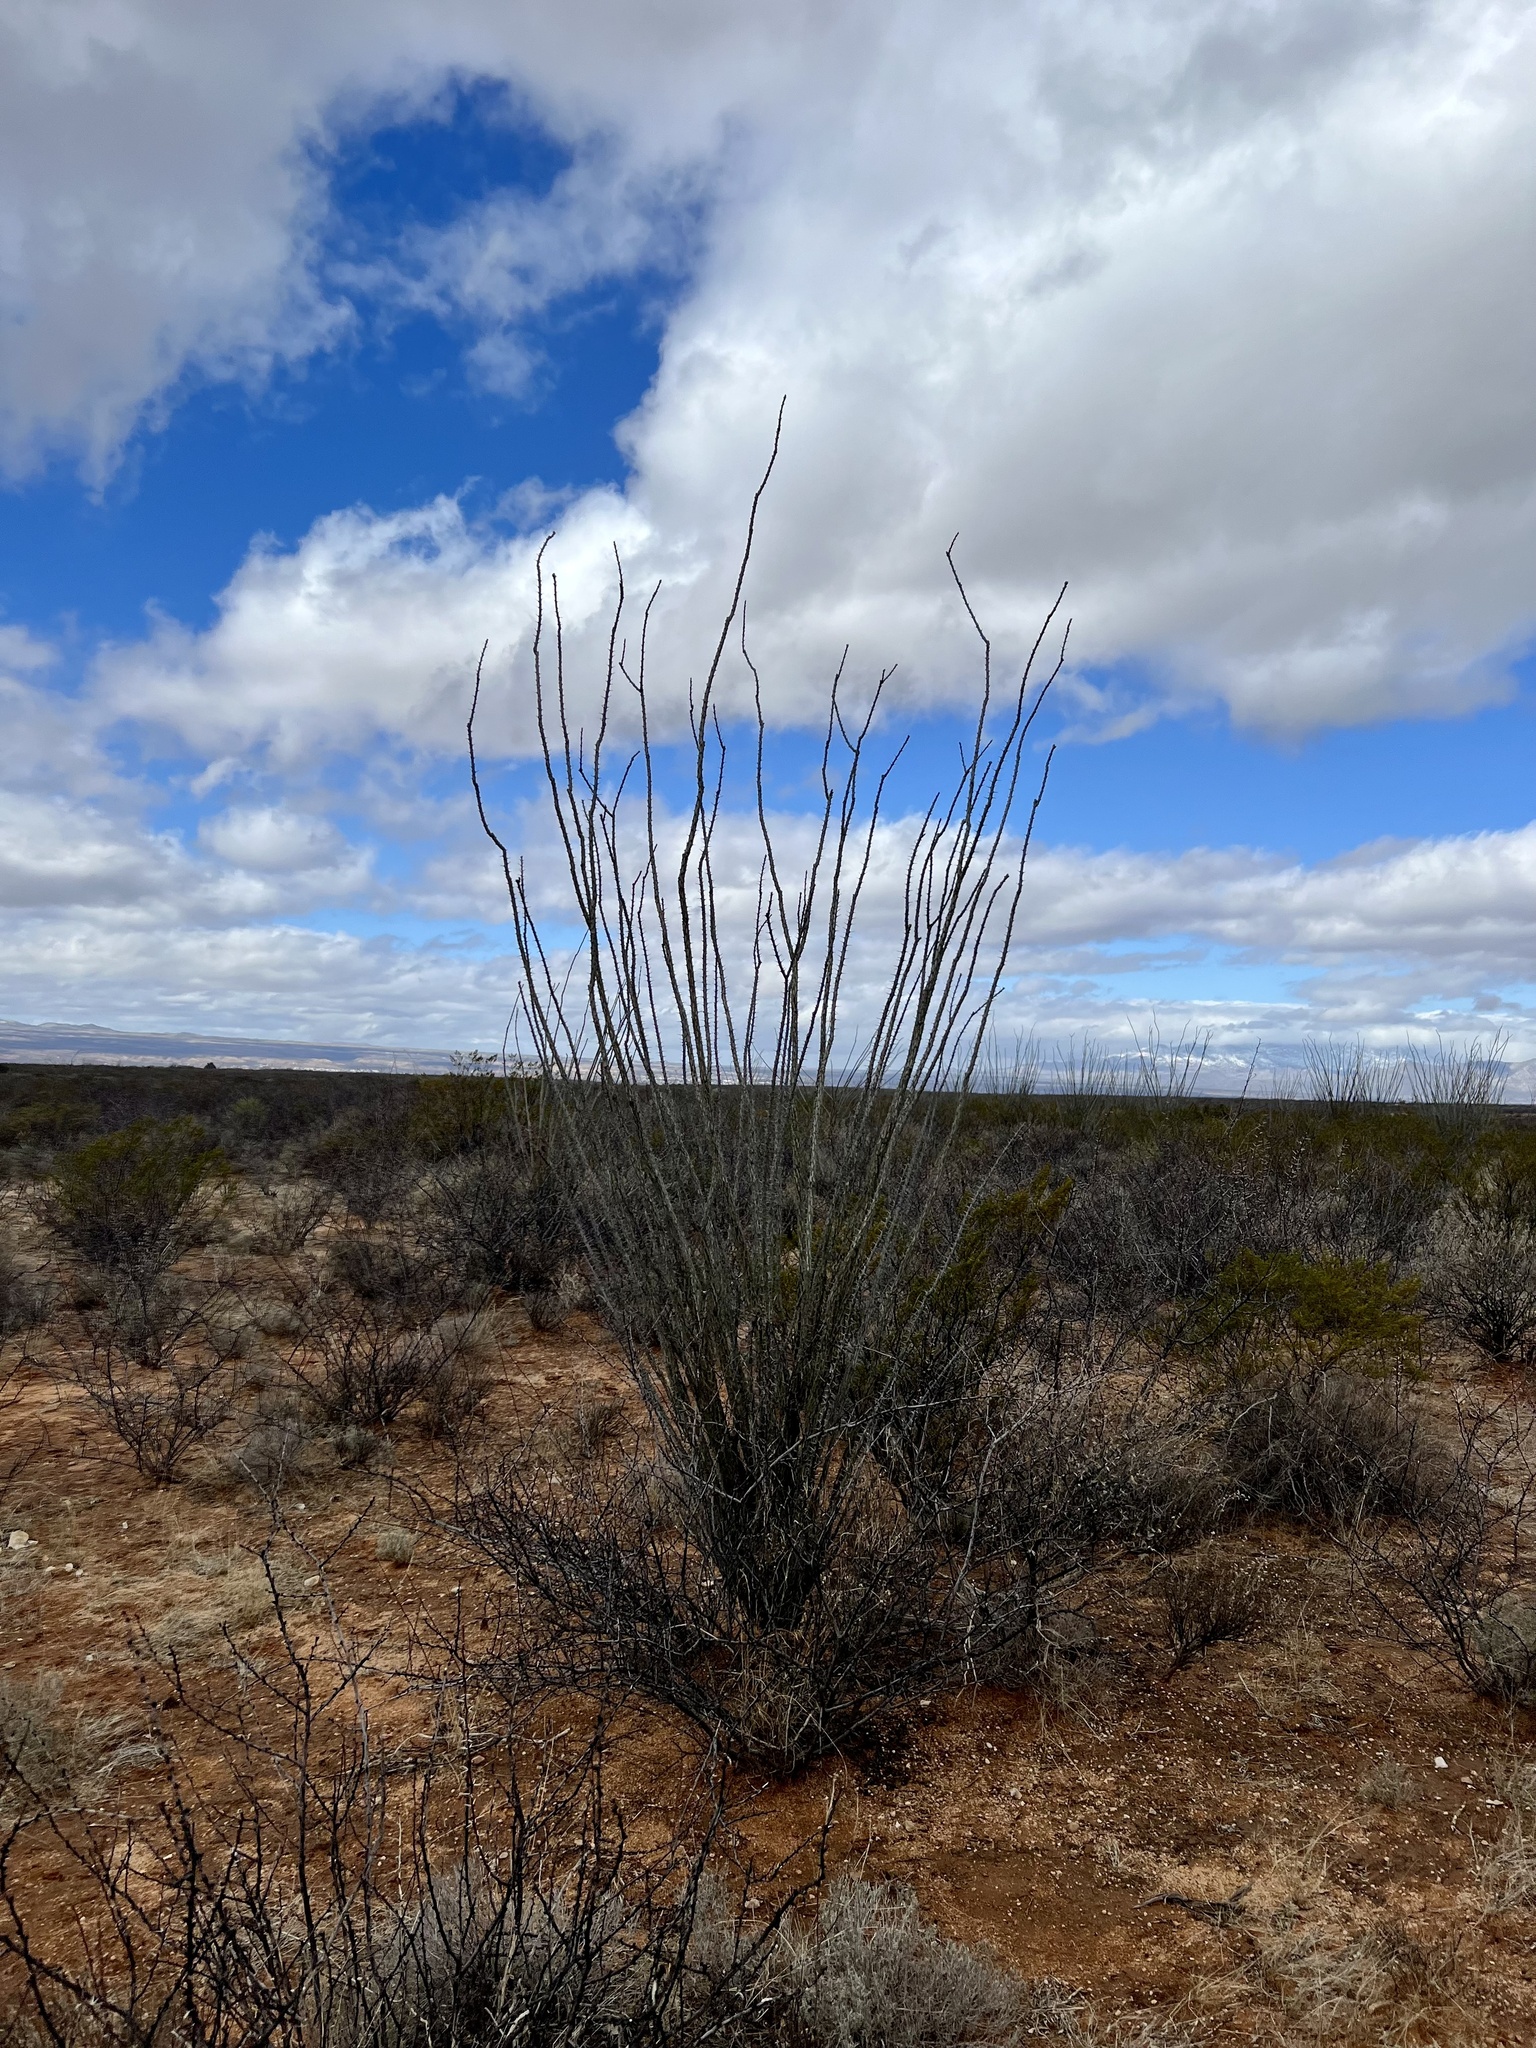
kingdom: Plantae
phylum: Tracheophyta
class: Magnoliopsida
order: Ericales
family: Fouquieriaceae
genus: Fouquieria
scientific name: Fouquieria splendens
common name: Vine-cactus
